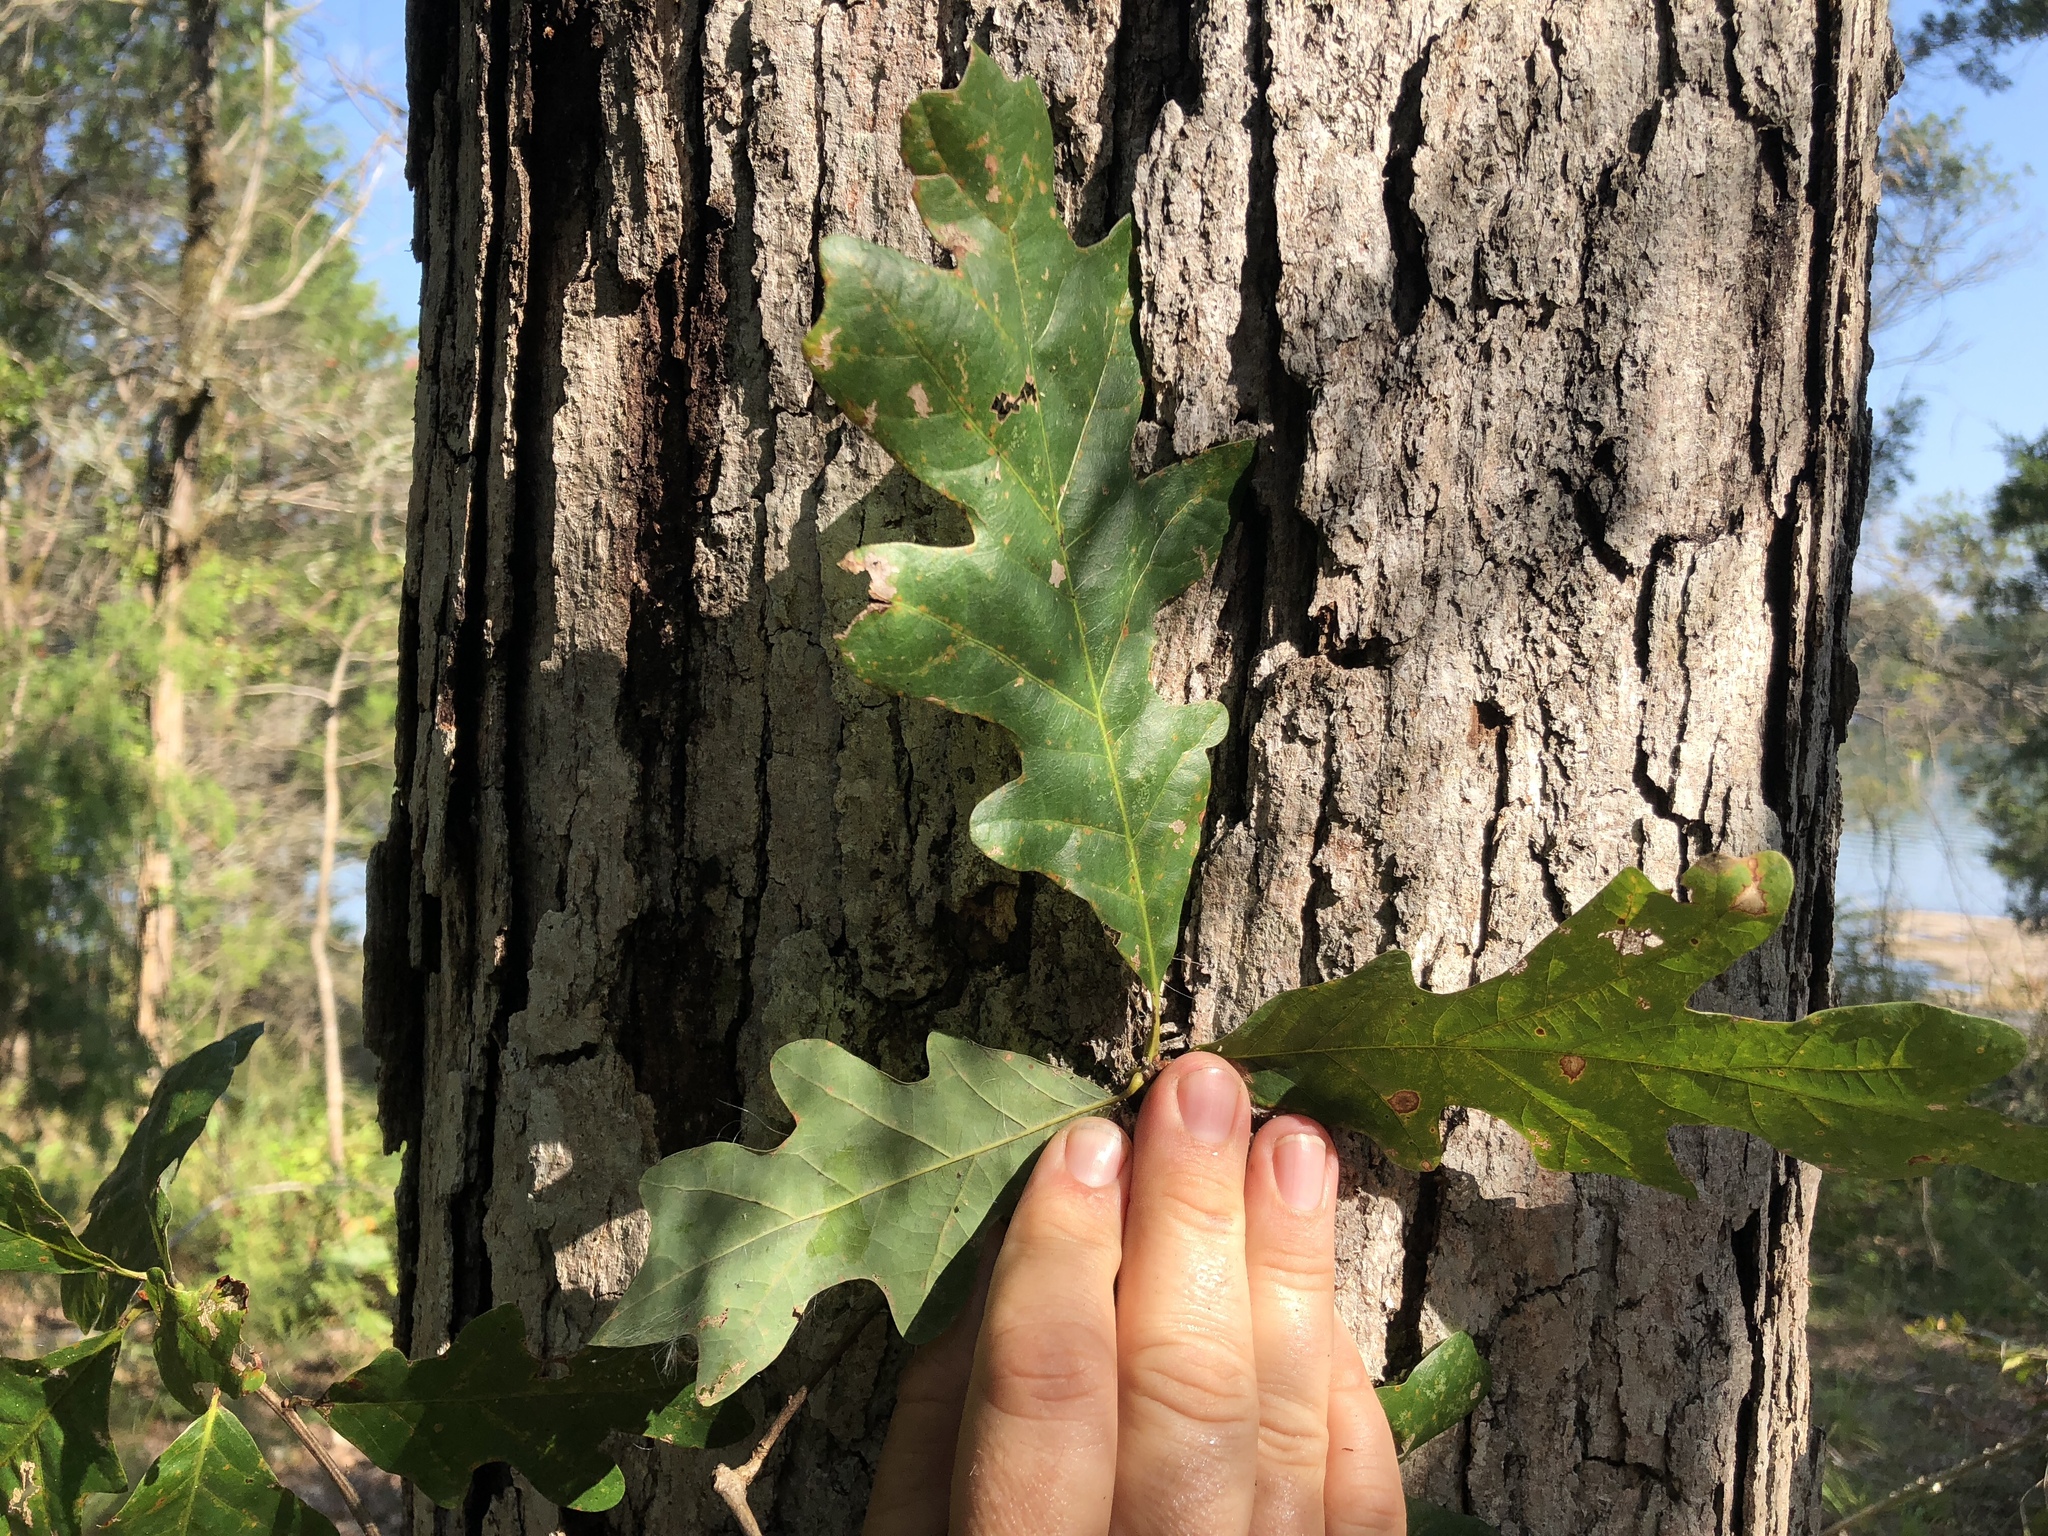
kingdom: Plantae
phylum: Tracheophyta
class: Magnoliopsida
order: Fagales
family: Fagaceae
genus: Quercus
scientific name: Quercus alba
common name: White oak
